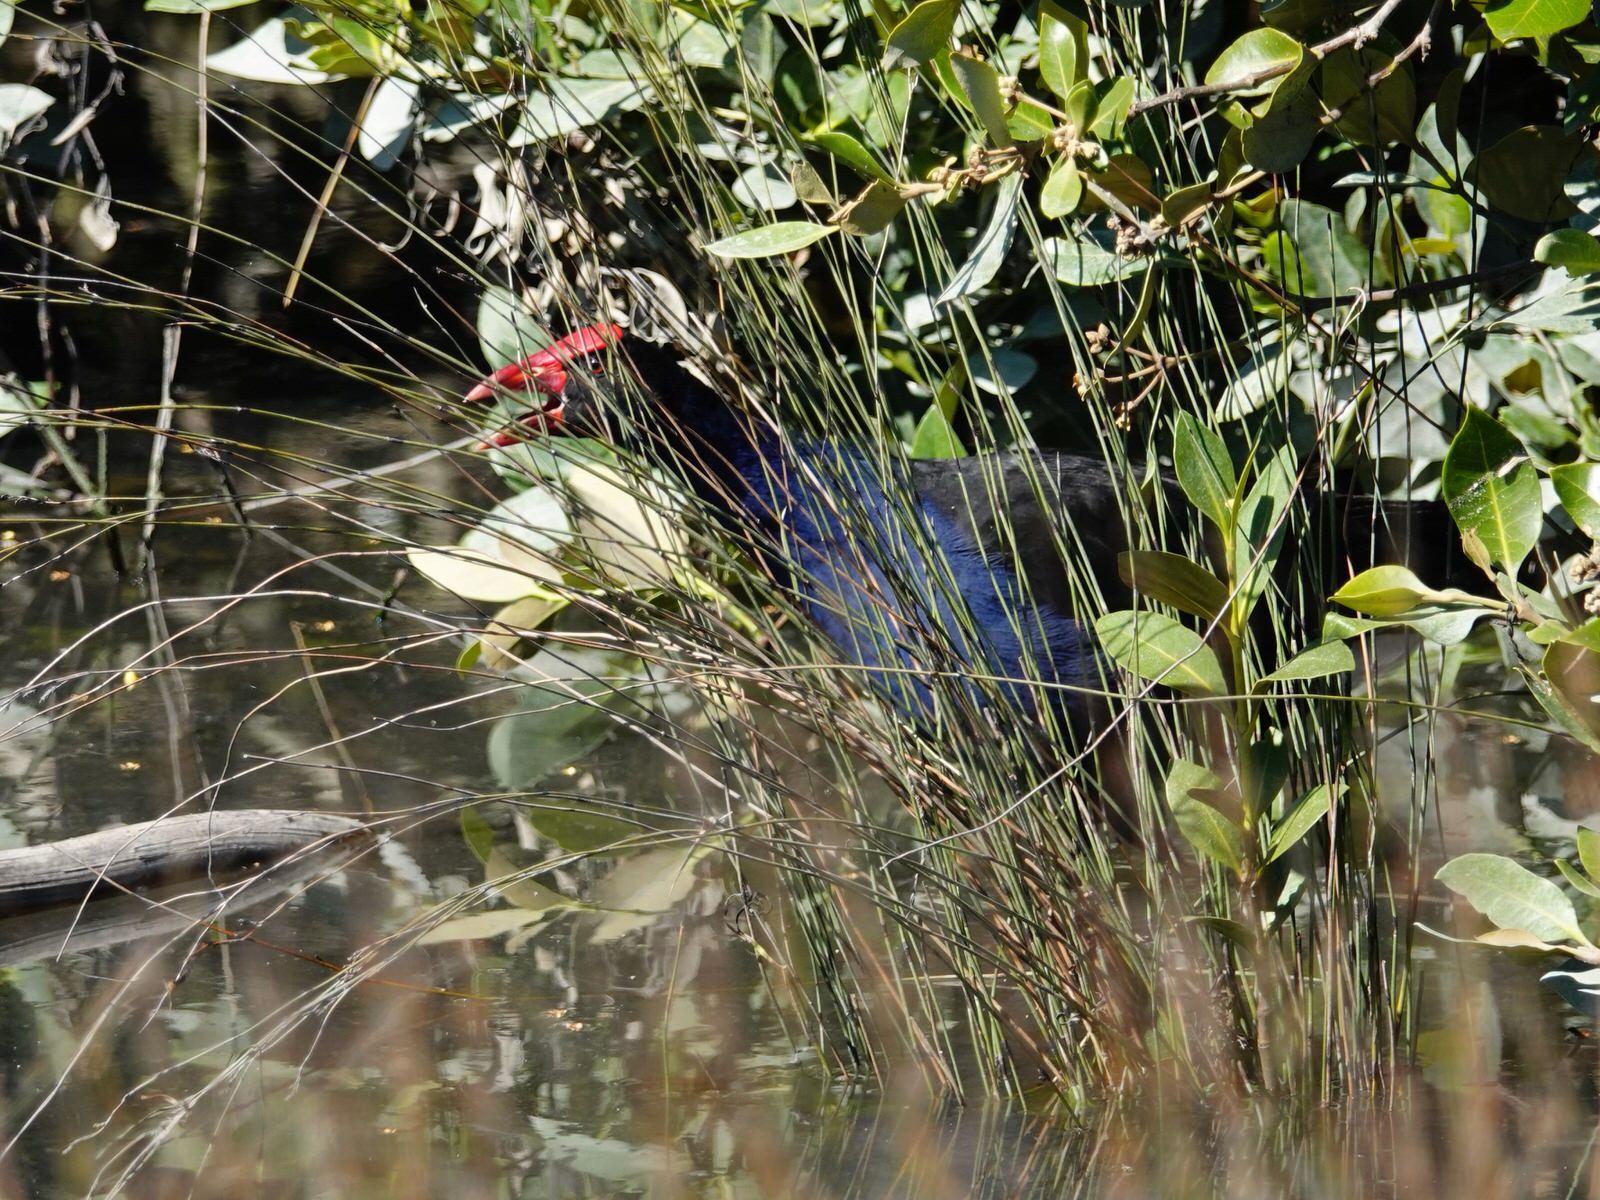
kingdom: Animalia
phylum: Chordata
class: Aves
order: Gruiformes
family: Rallidae
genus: Porphyrio
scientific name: Porphyrio melanotus
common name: Australasian swamphen
